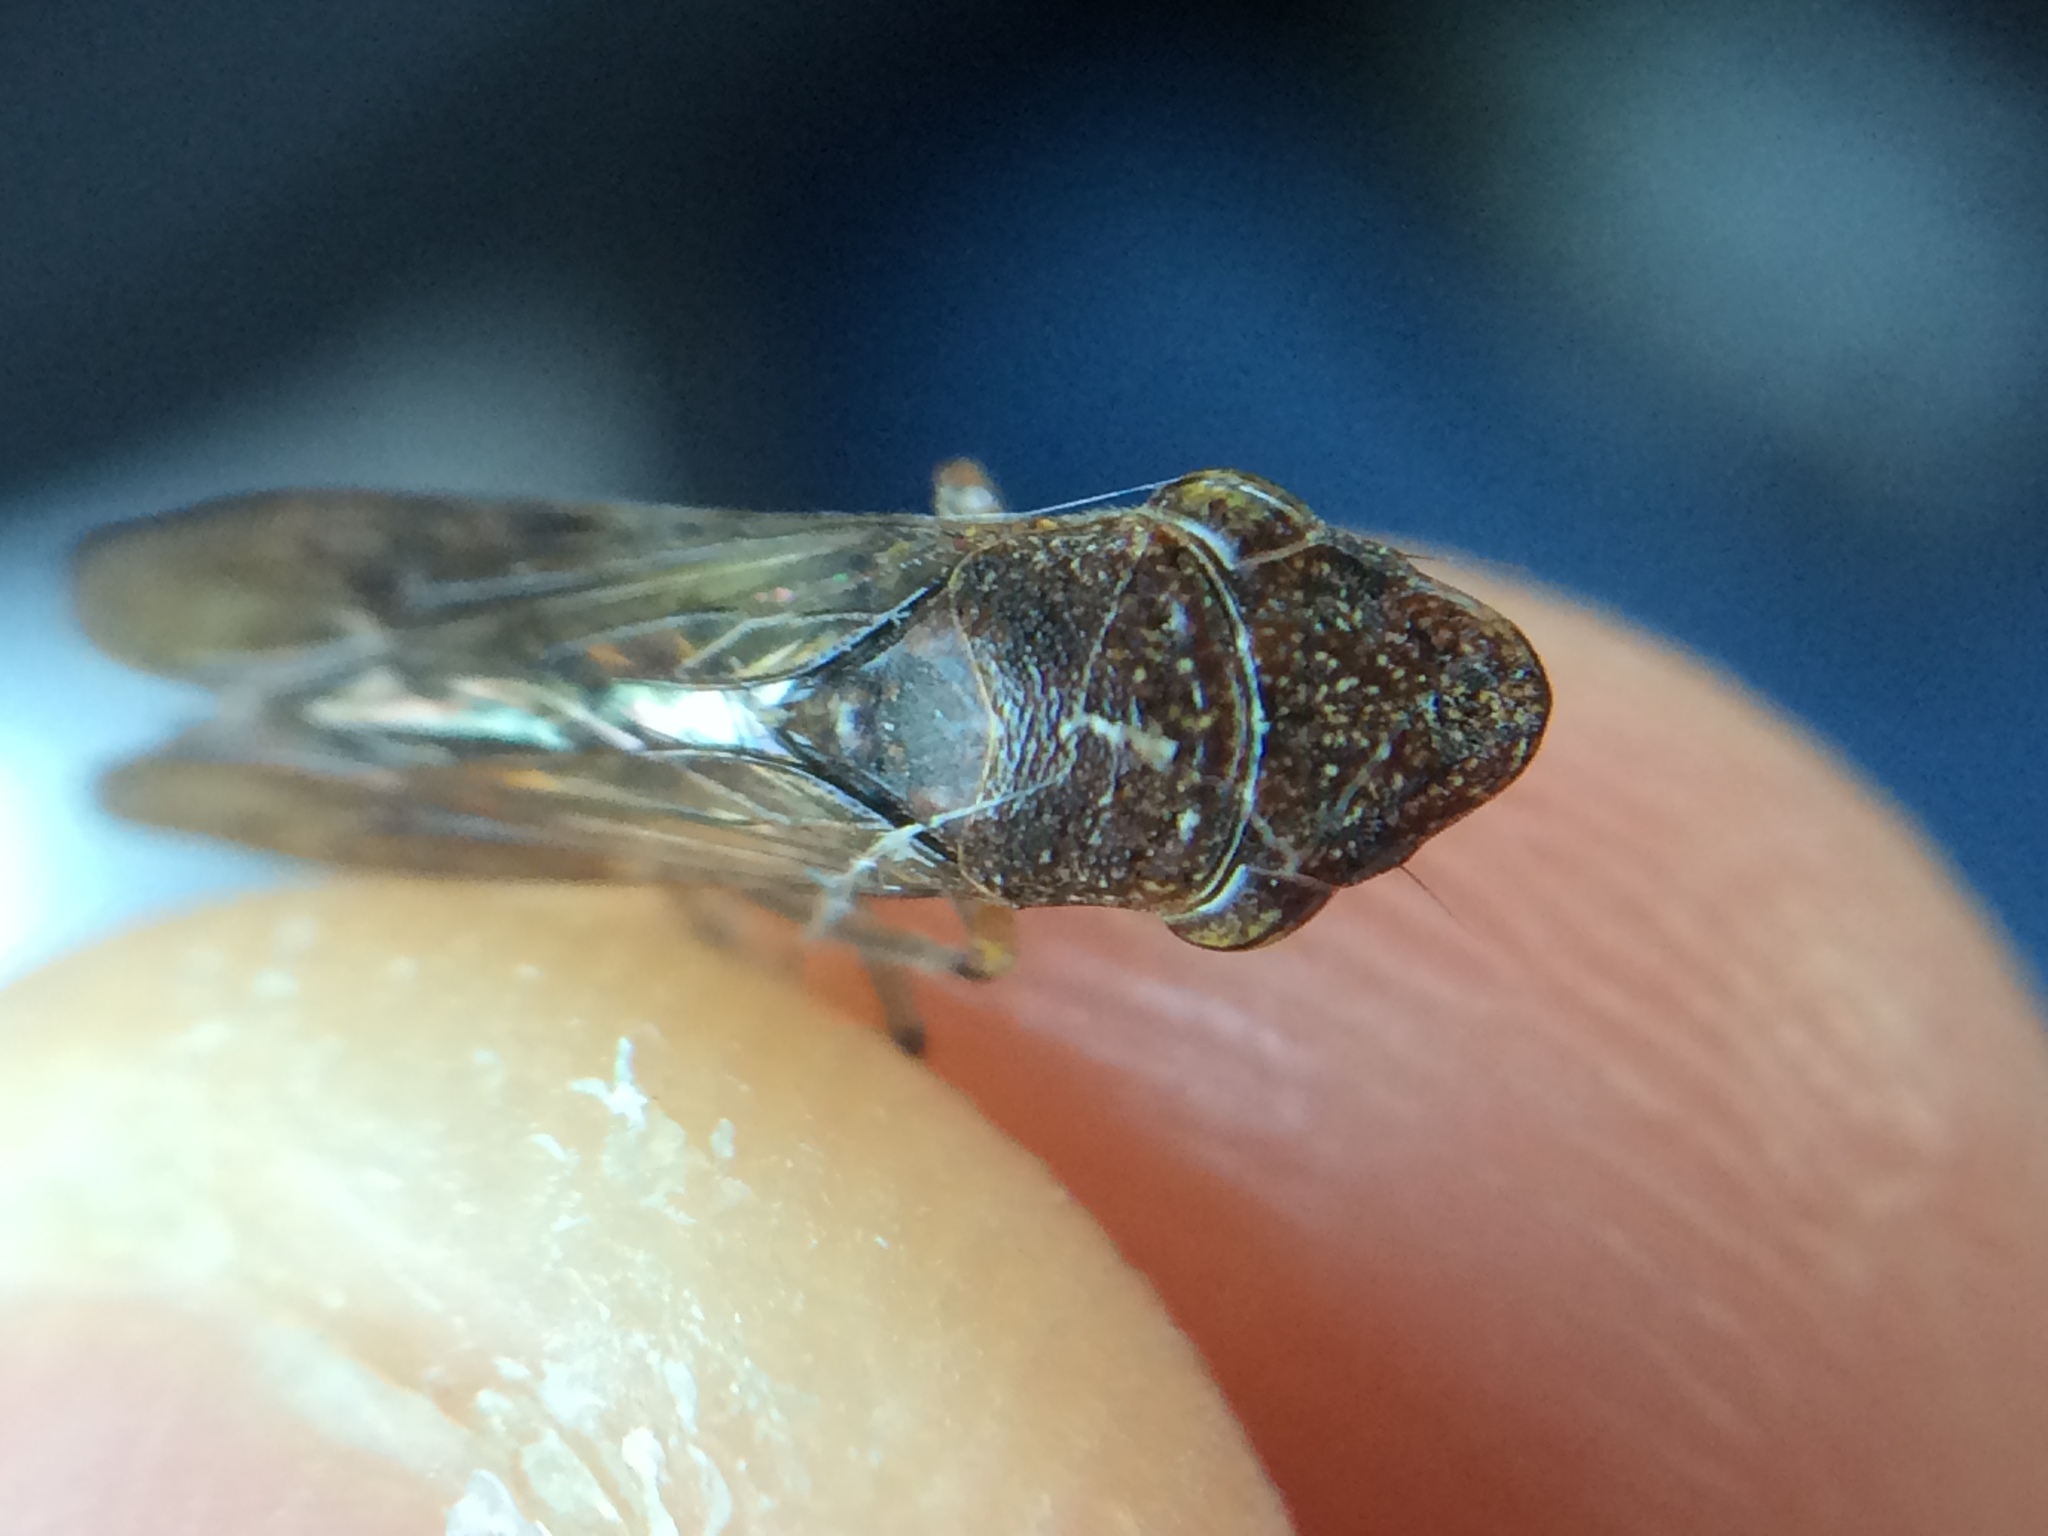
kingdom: Animalia
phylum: Arthropoda
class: Insecta
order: Hemiptera
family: Cicadellidae
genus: Homalodisca
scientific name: Homalodisca vitripennis
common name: Glassy-winged sharpshooter
